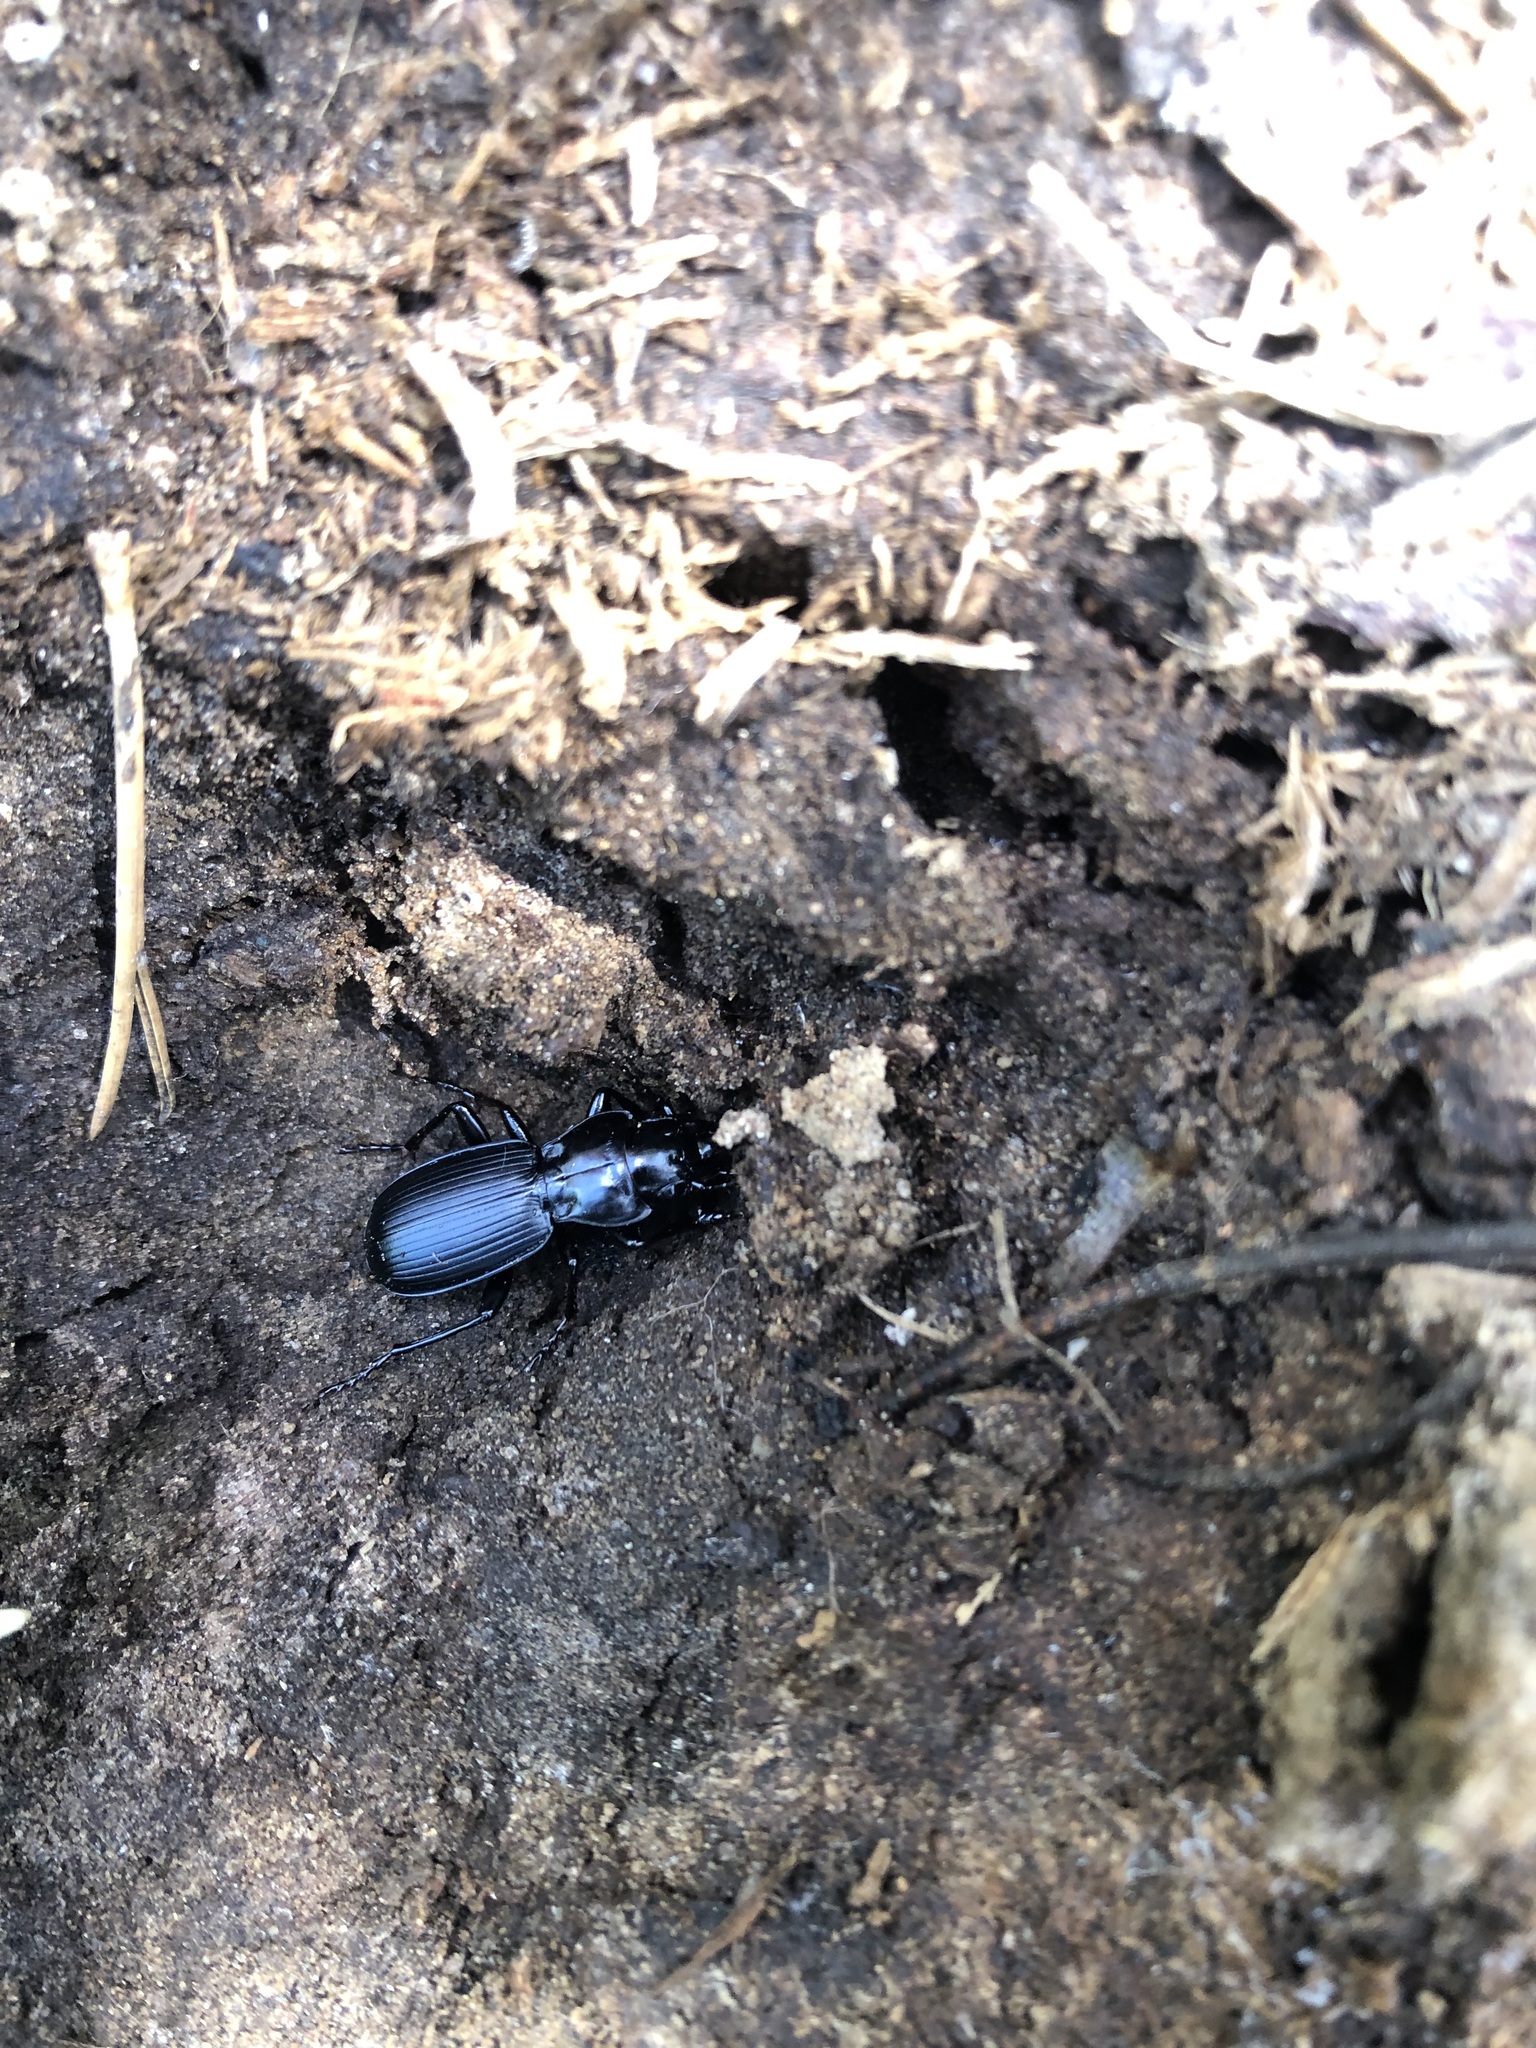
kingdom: Animalia
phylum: Arthropoda
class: Insecta
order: Coleoptera
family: Carabidae
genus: Pterostichus
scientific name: Pterostichus lama
